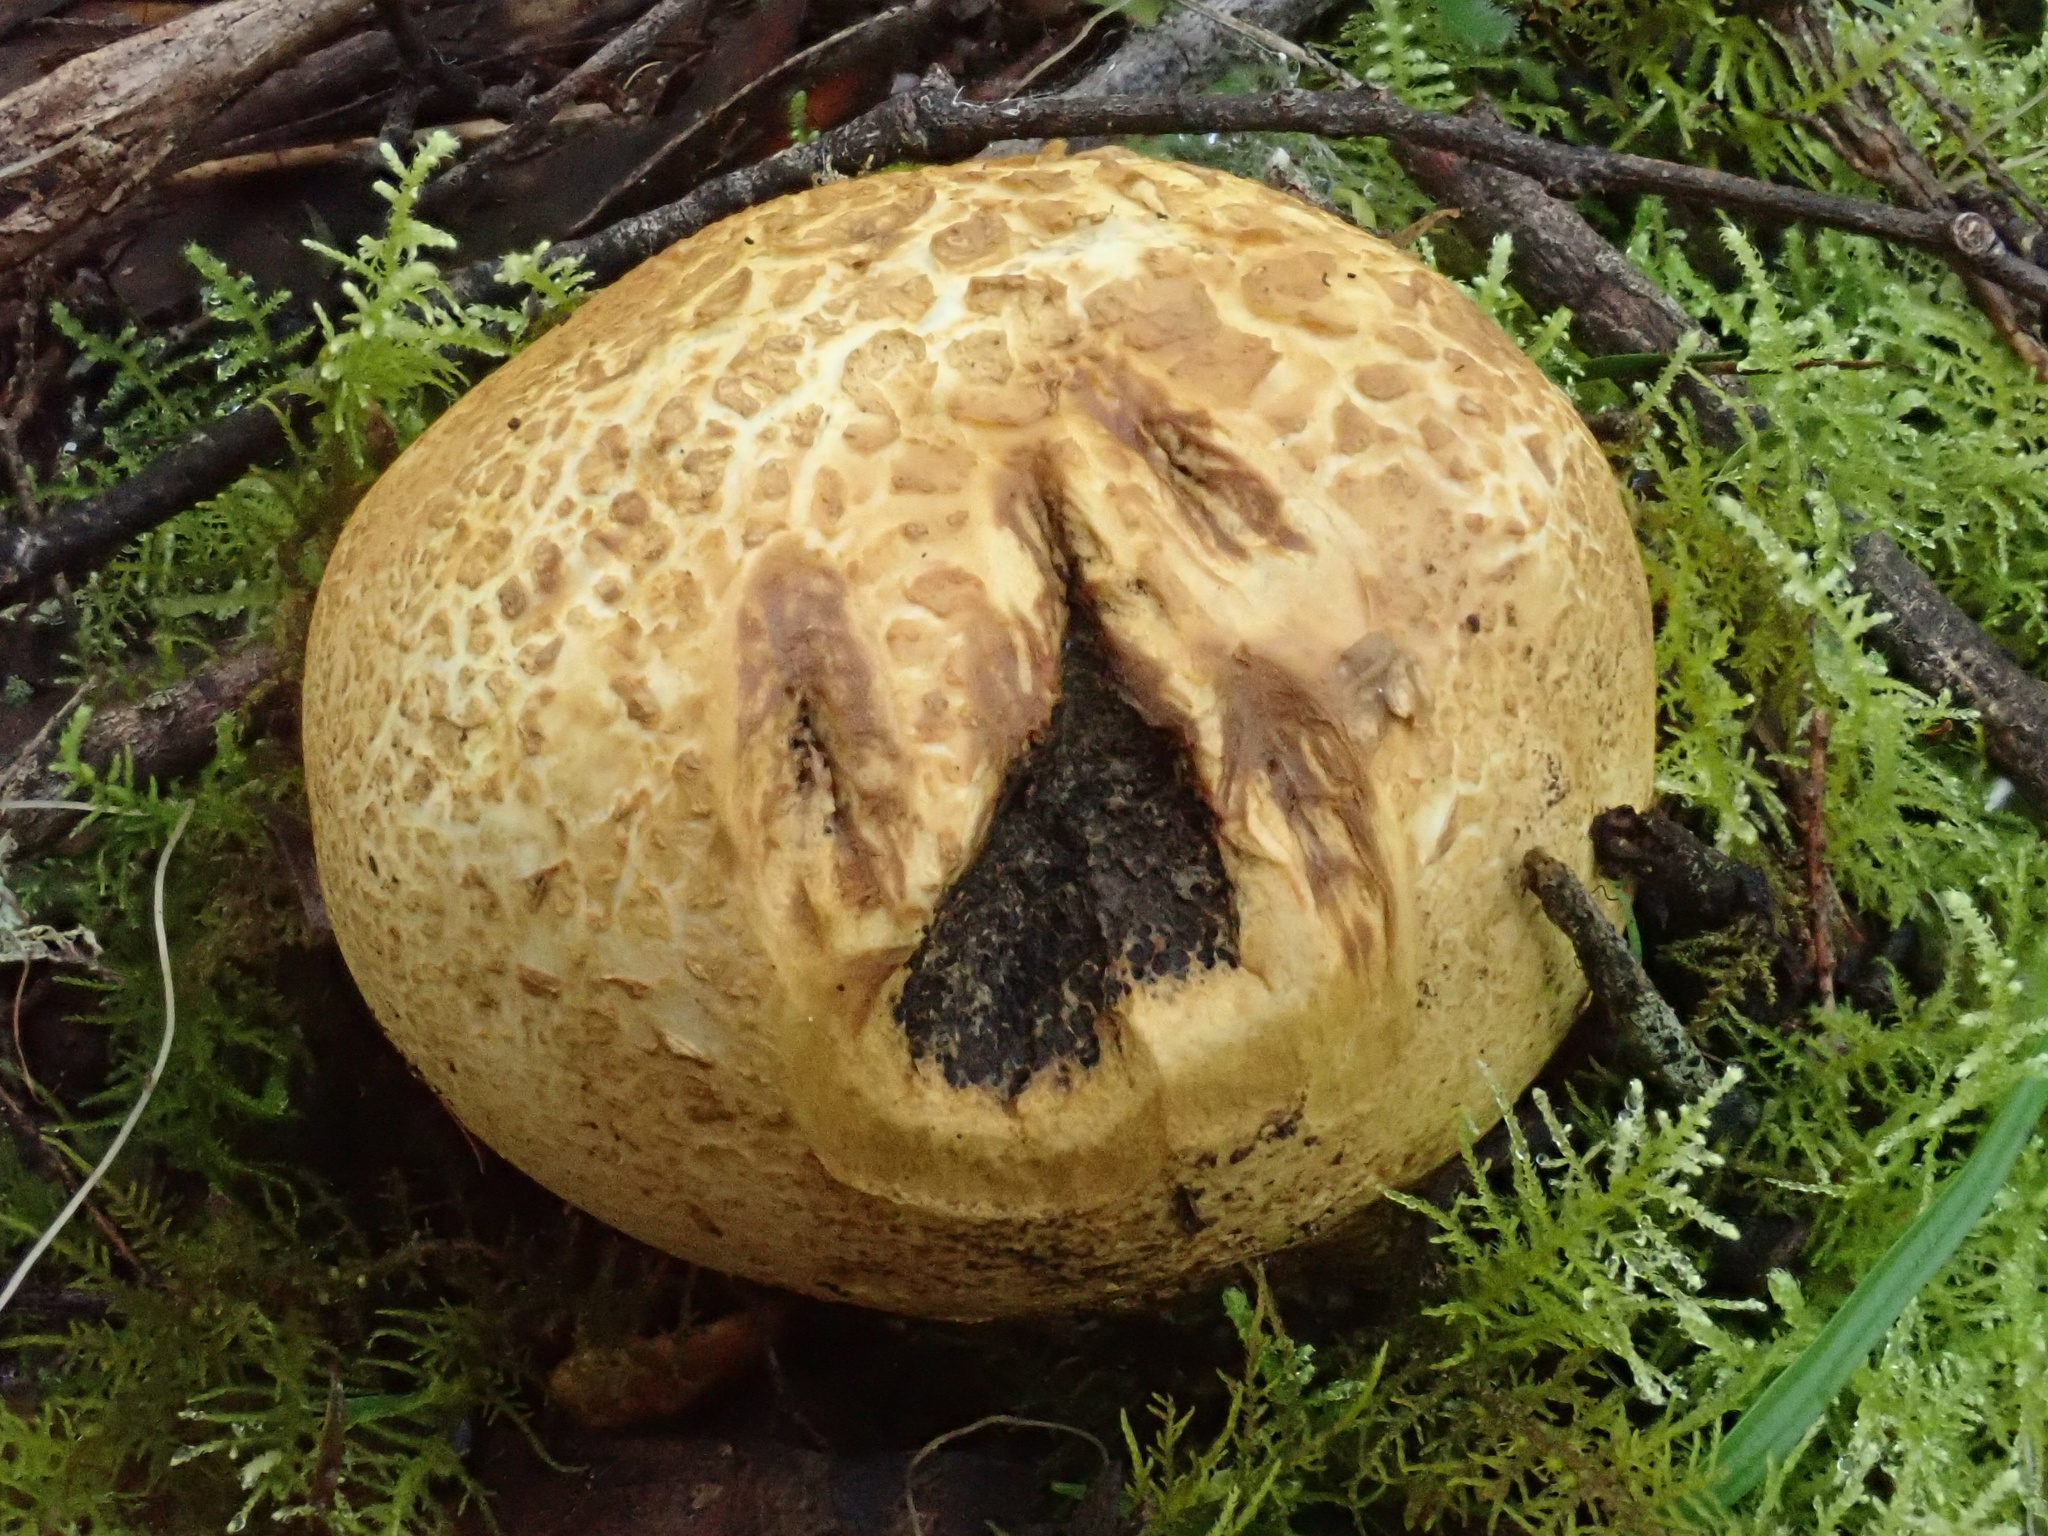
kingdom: Fungi
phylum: Basidiomycota
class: Agaricomycetes
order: Boletales
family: Sclerodermataceae
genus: Scleroderma
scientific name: Scleroderma cepa
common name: Onion earthball
